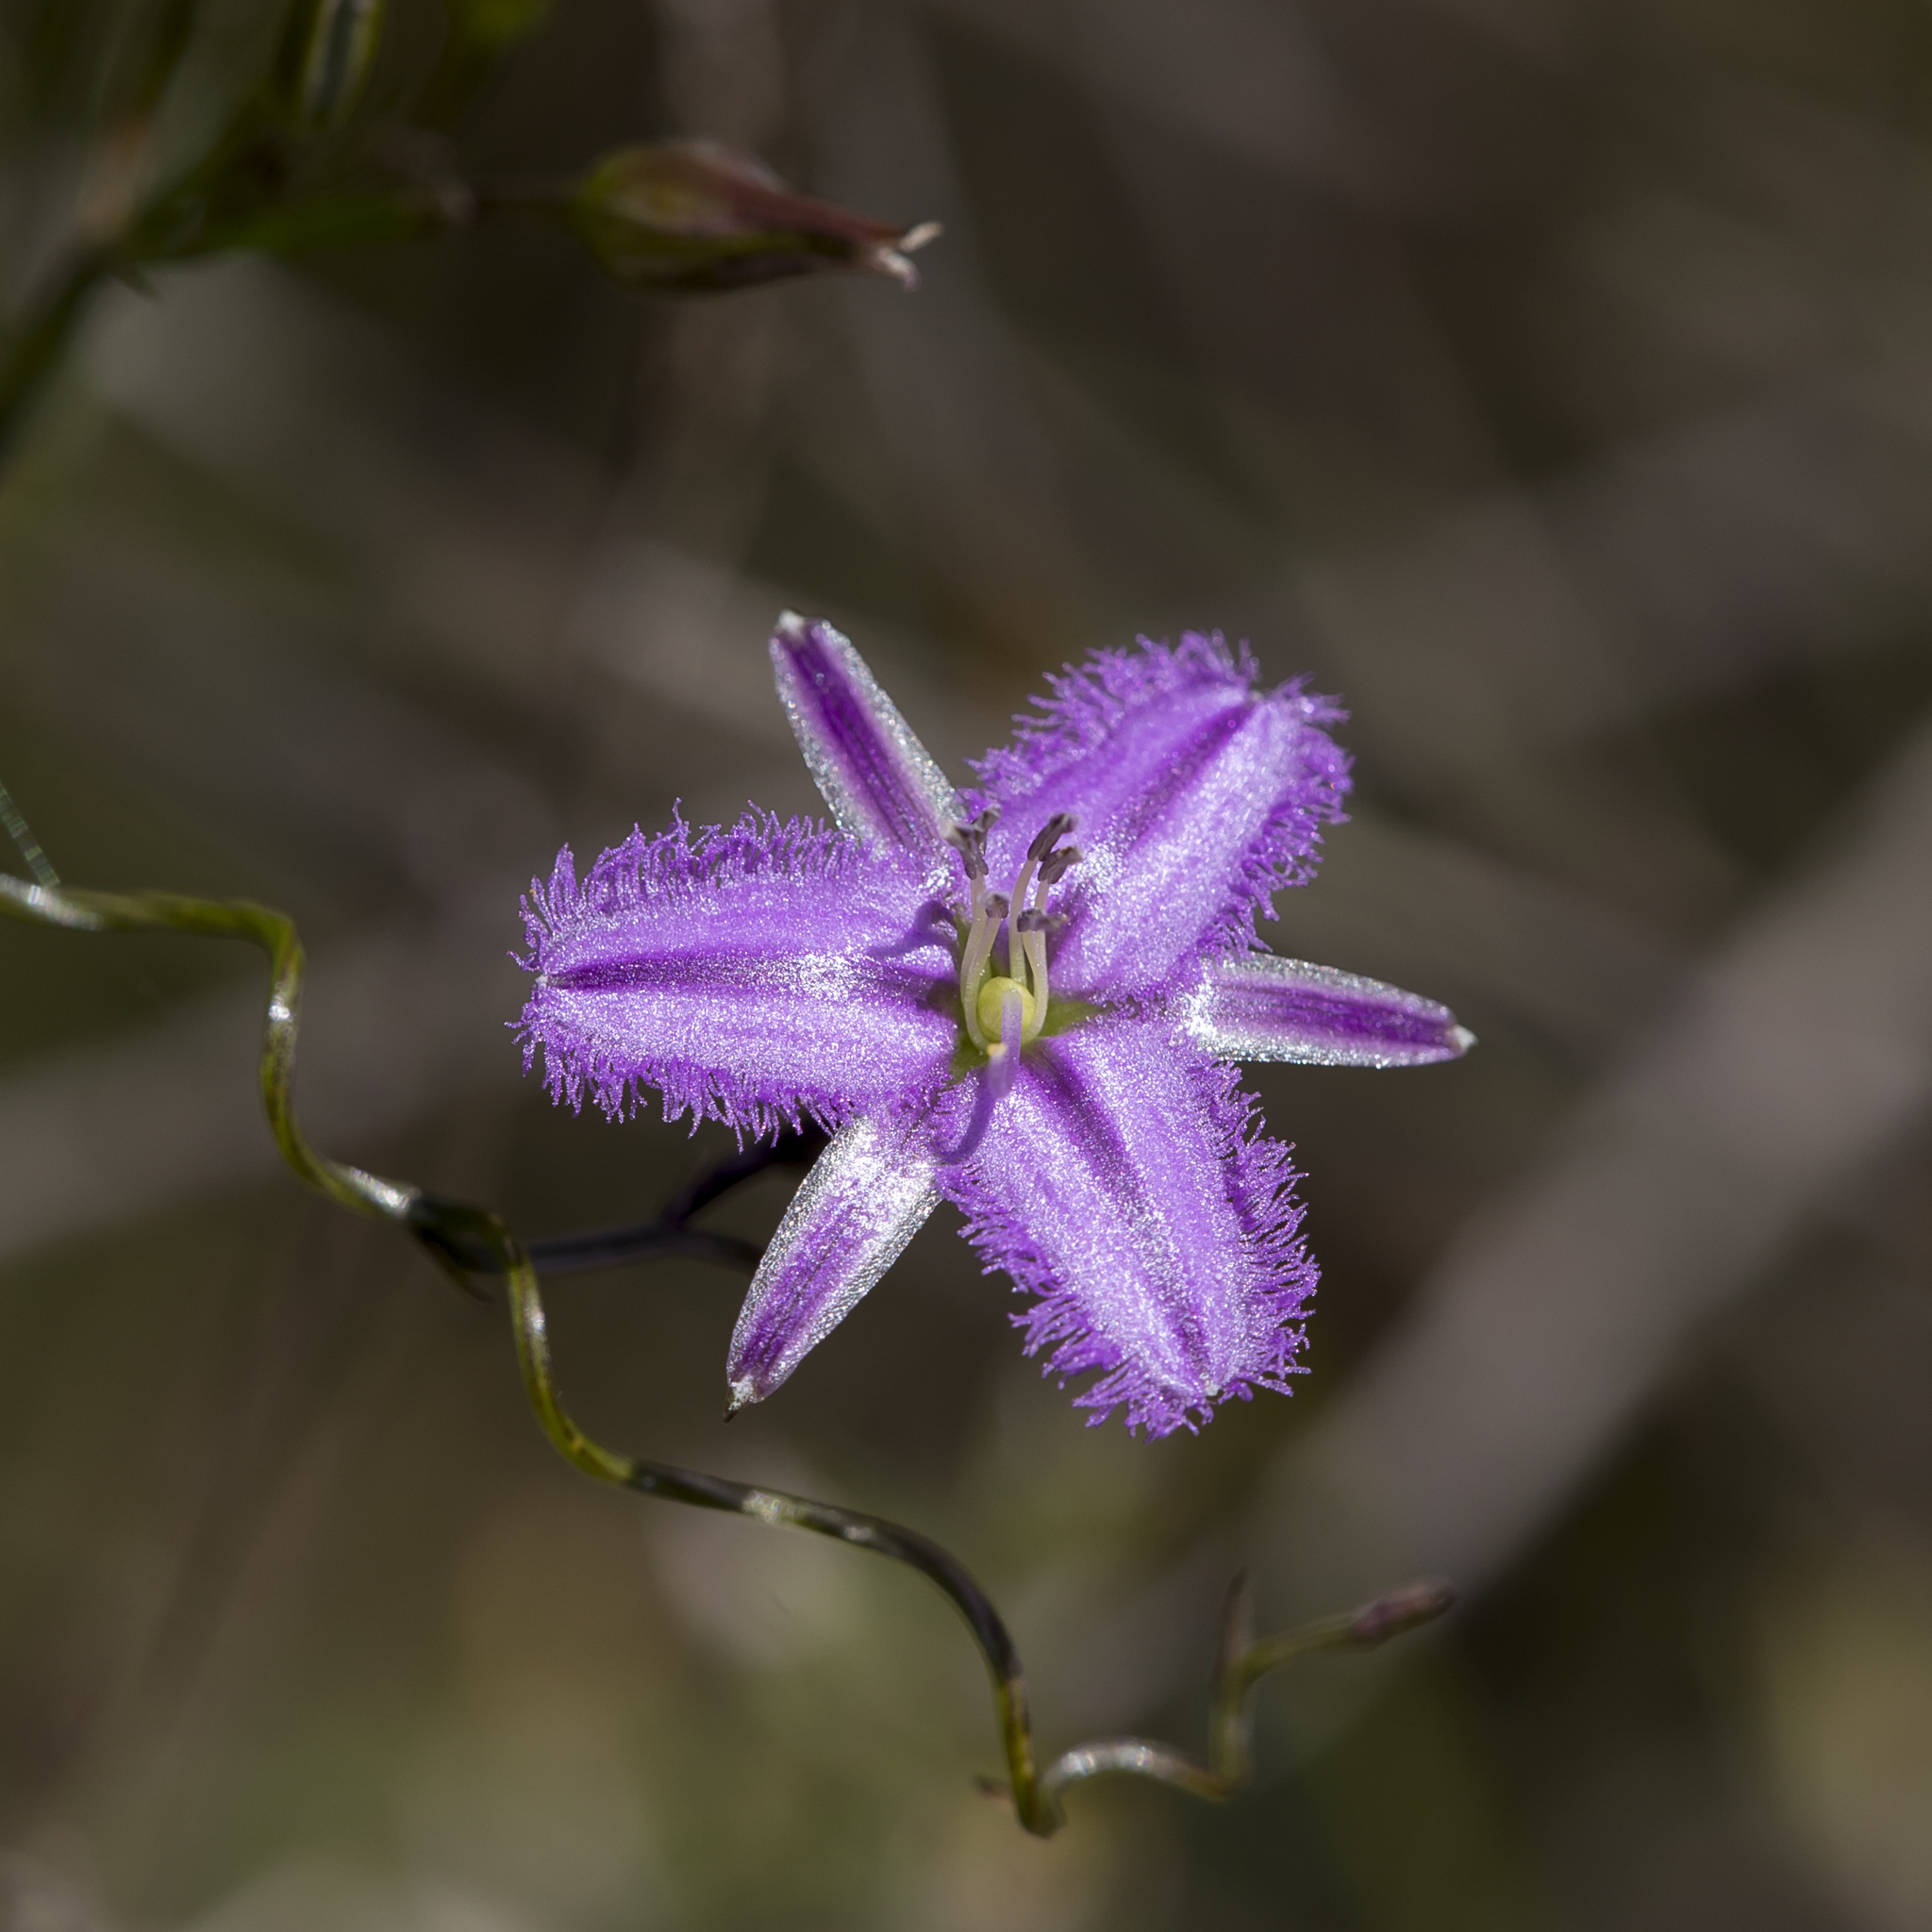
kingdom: Plantae
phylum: Tracheophyta
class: Liliopsida
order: Asparagales
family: Asparagaceae
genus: Thysanotus
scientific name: Thysanotus patersonii
